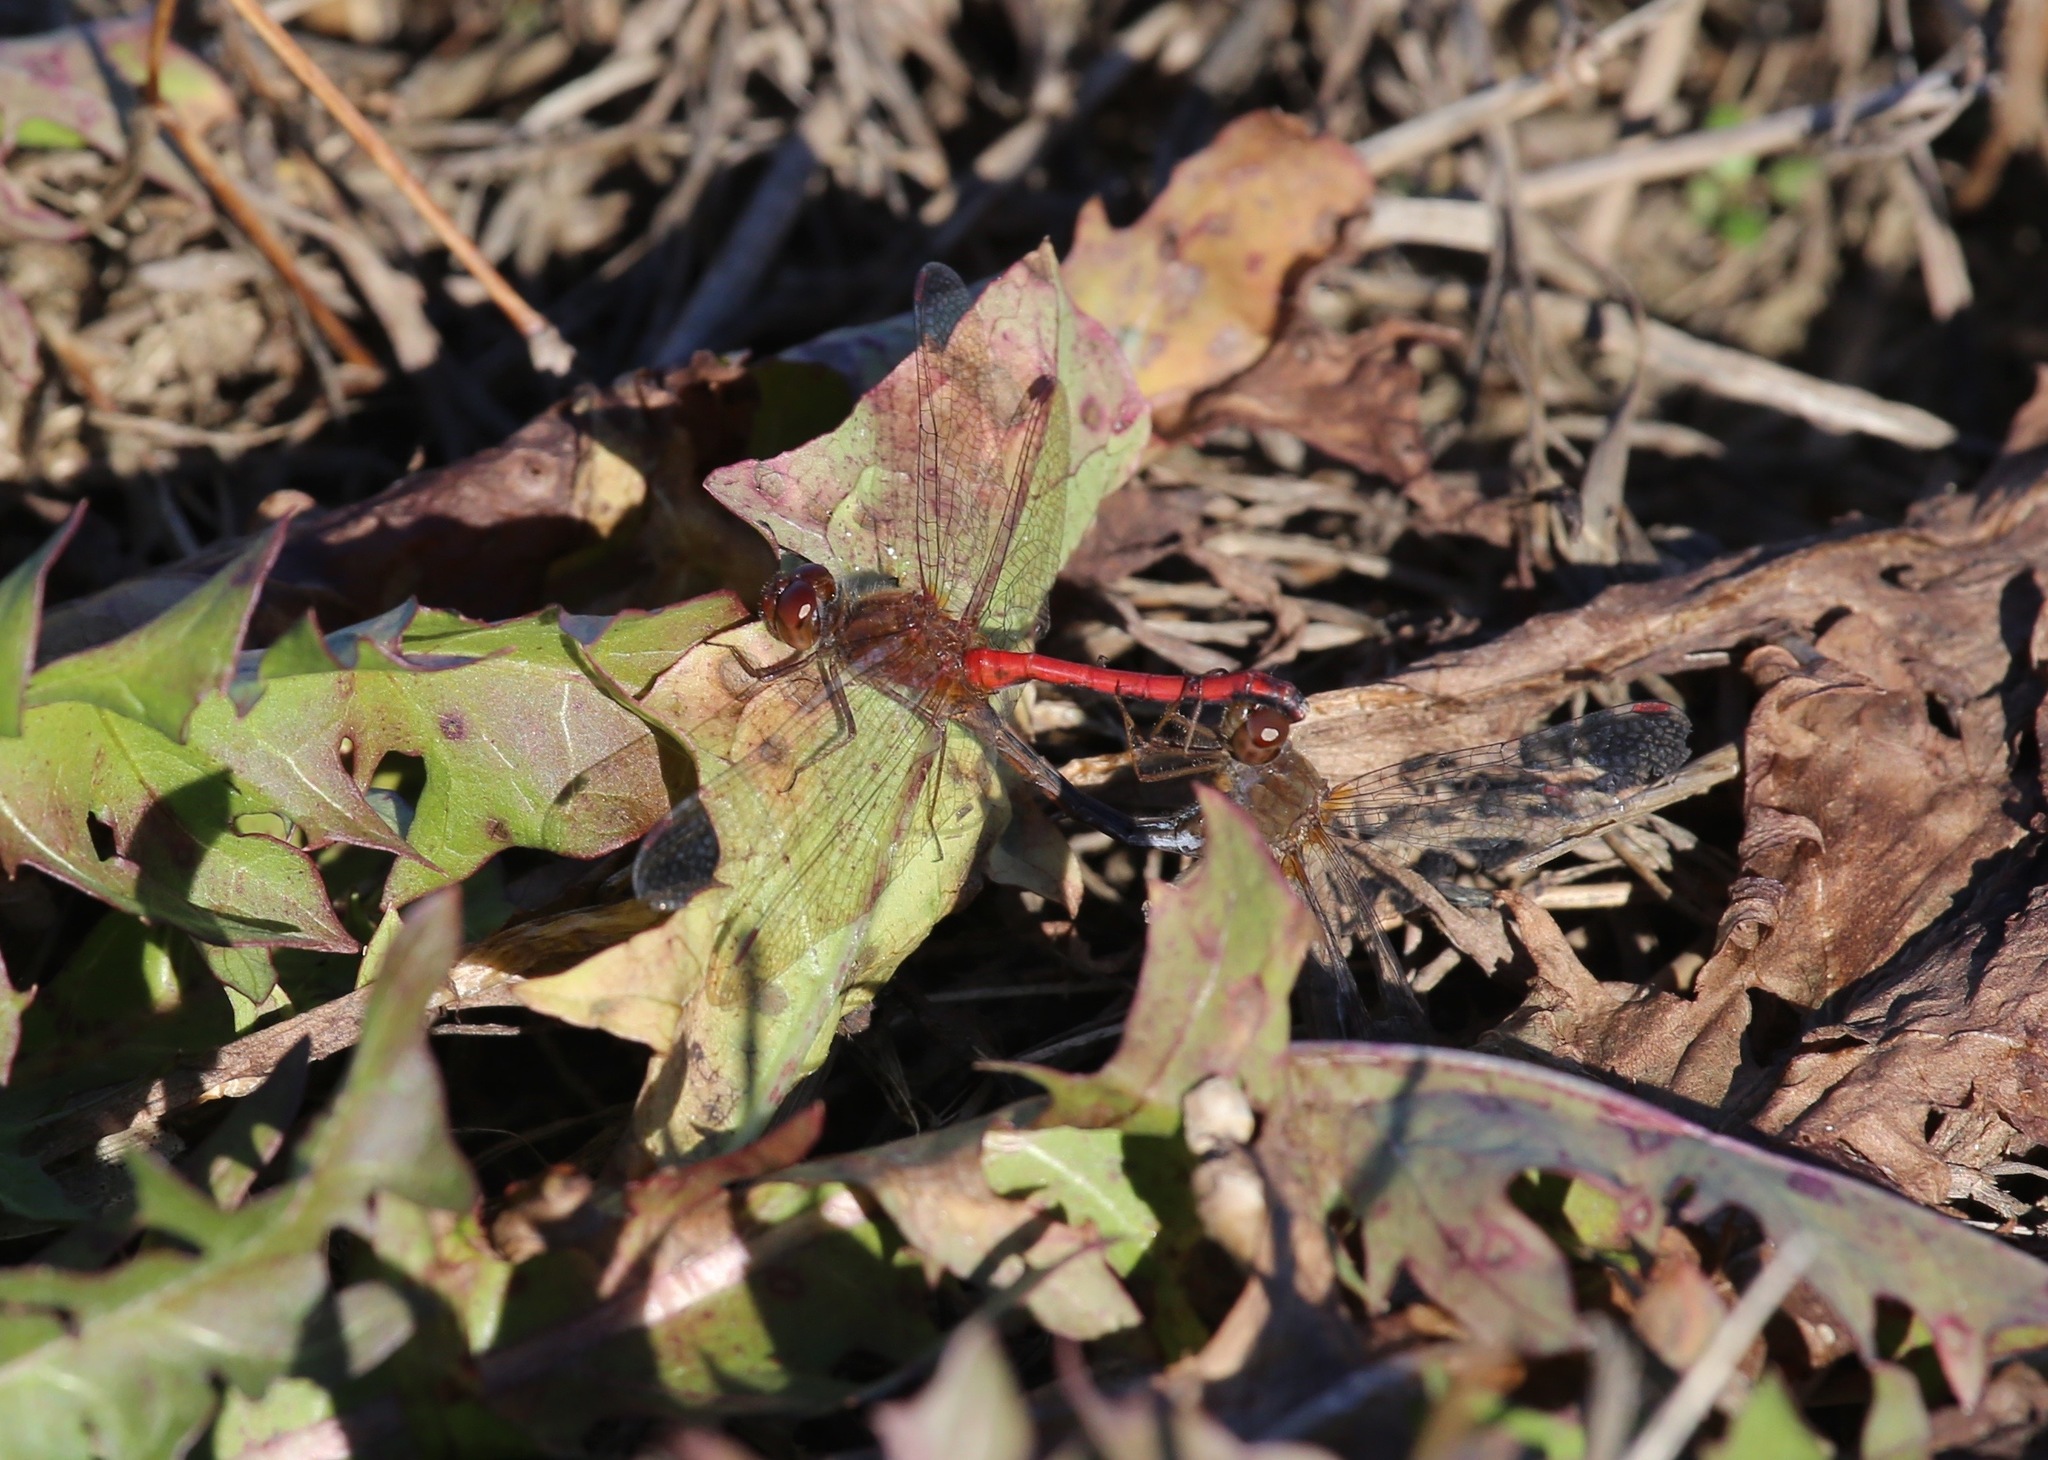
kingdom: Animalia
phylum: Arthropoda
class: Insecta
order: Odonata
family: Libellulidae
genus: Sympetrum
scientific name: Sympetrum vicinum
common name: Autumn meadowhawk
